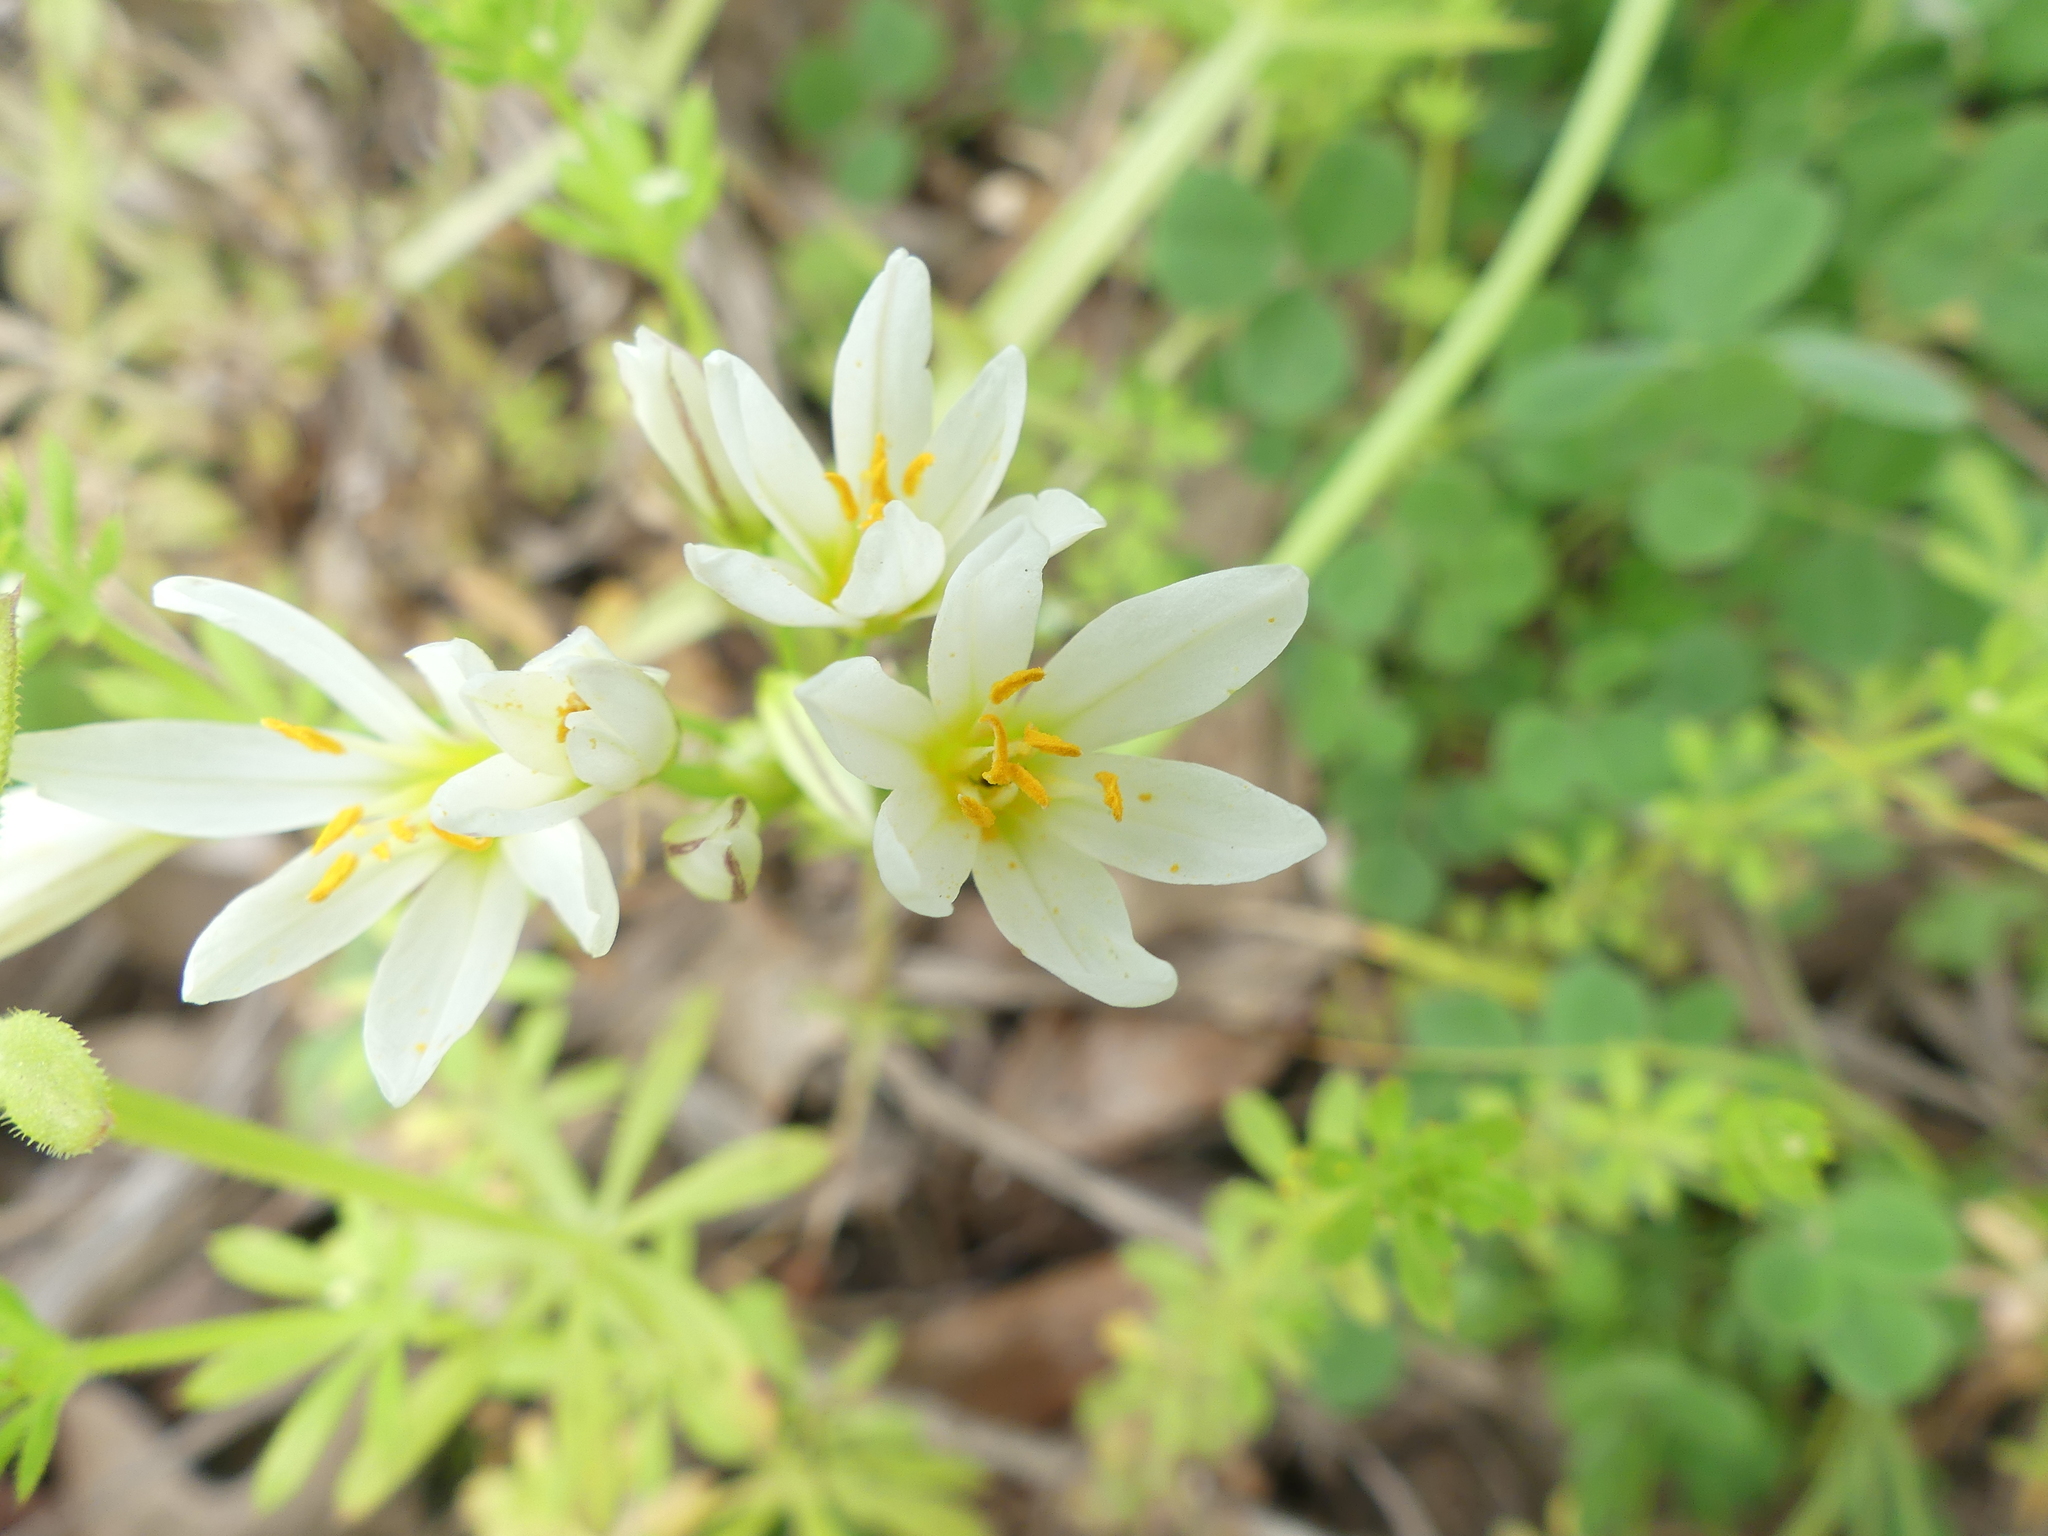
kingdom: Plantae
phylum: Tracheophyta
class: Liliopsida
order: Asparagales
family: Amaryllidaceae
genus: Nothoscordum
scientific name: Nothoscordum bivalve
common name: Crow-poison
